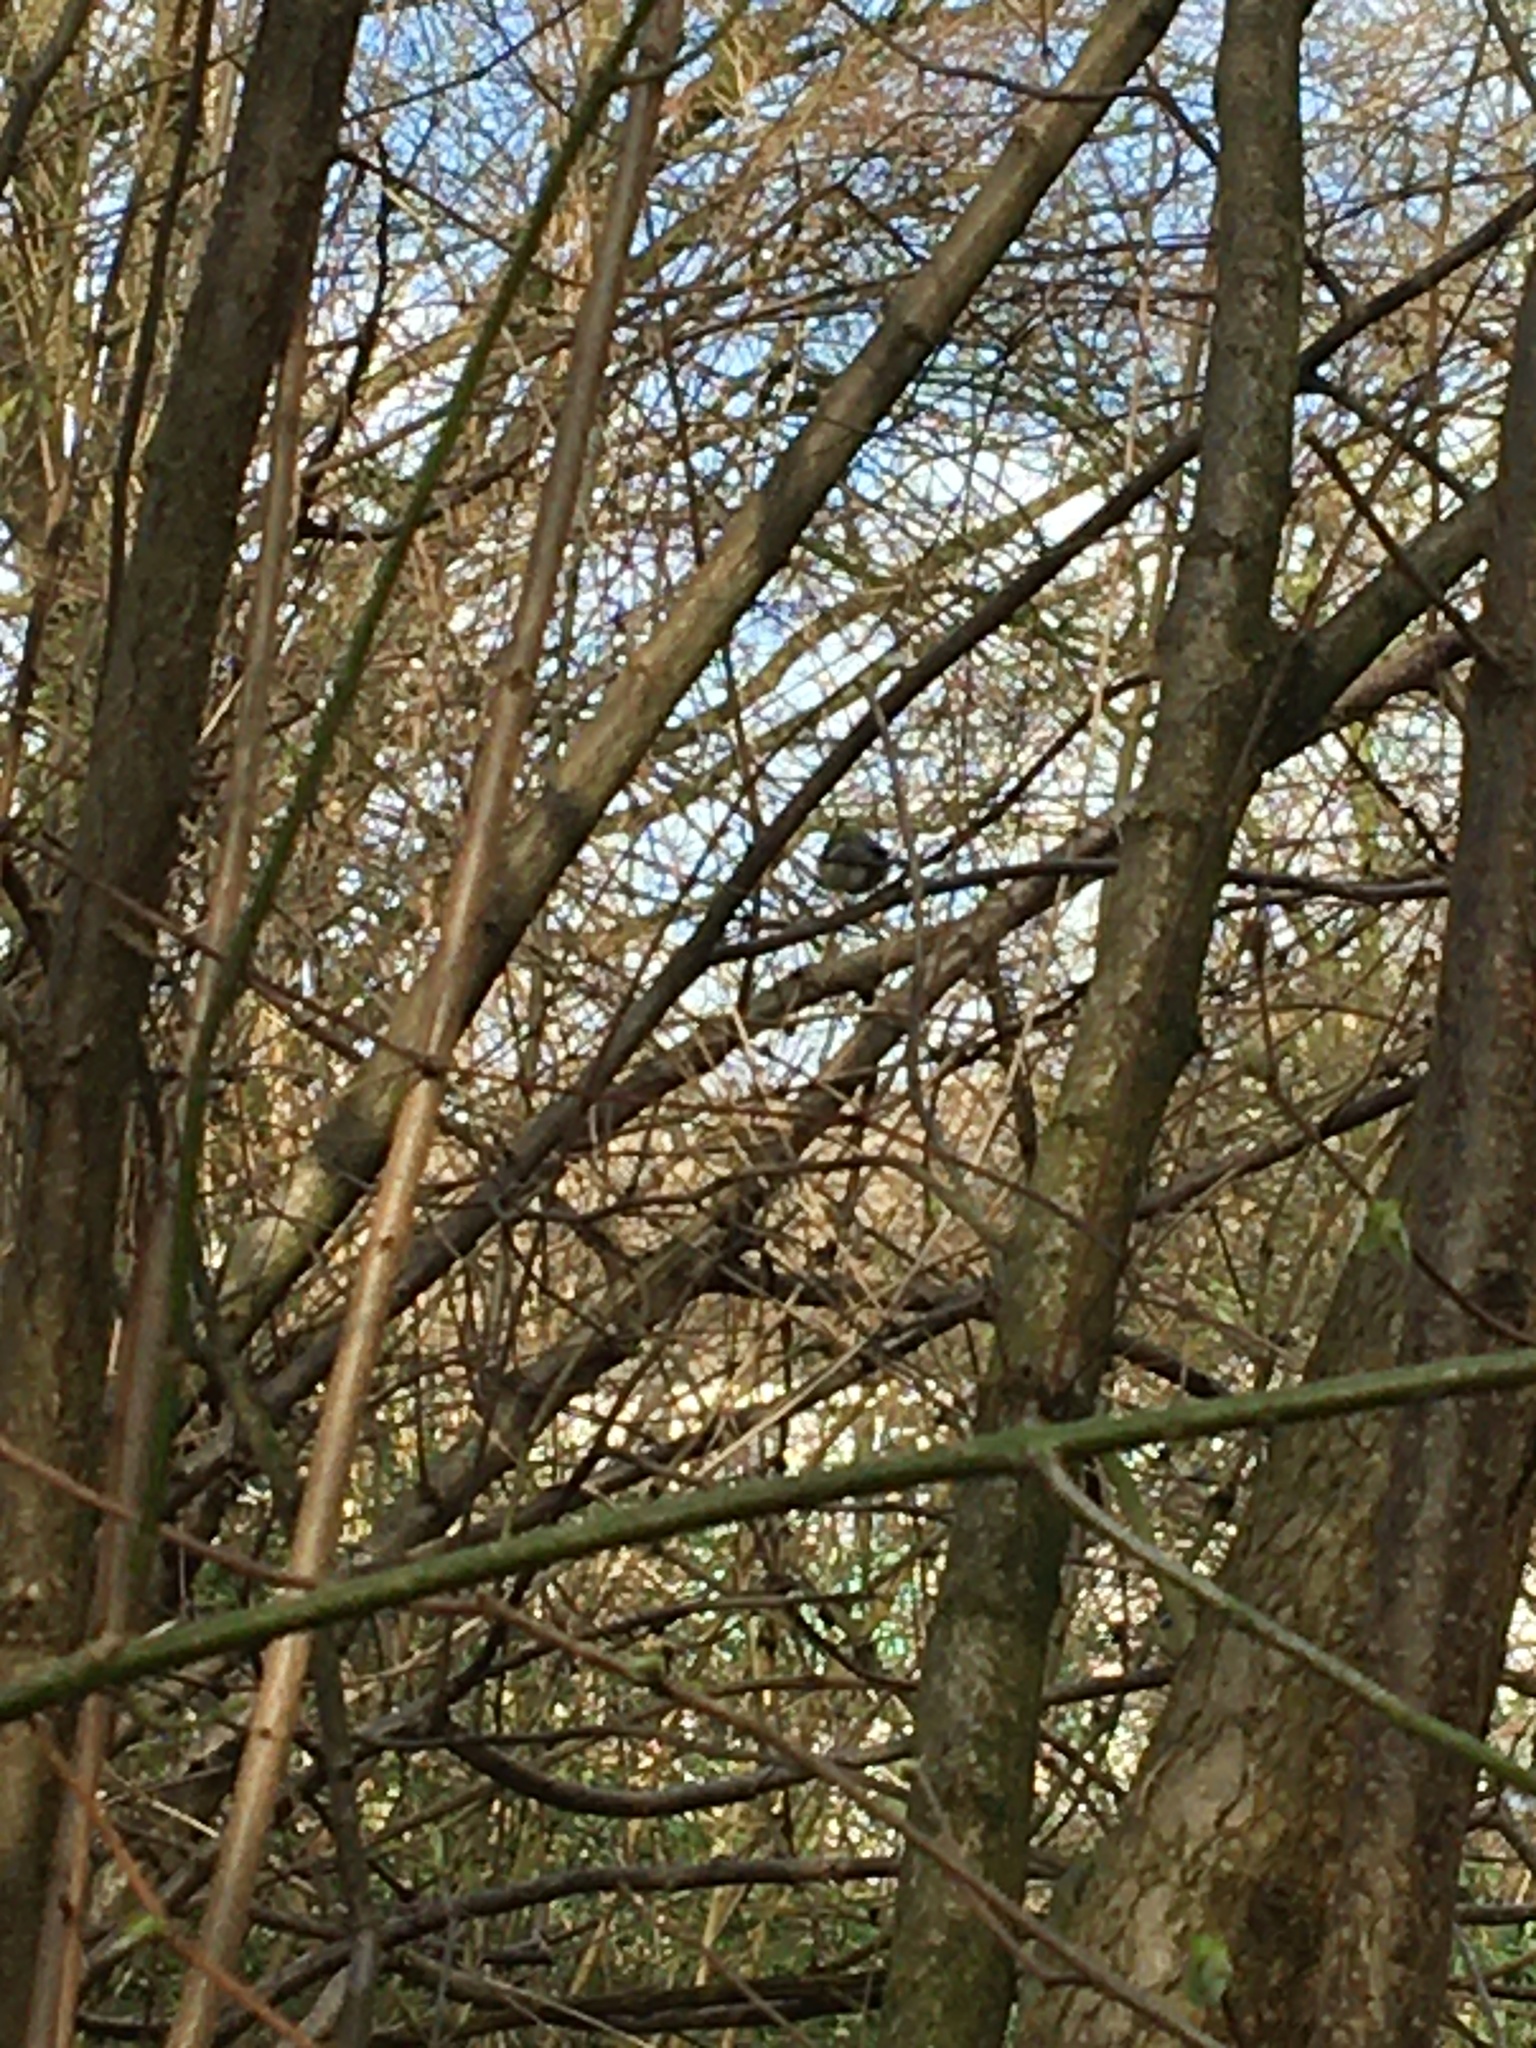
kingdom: Animalia
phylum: Chordata
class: Aves
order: Passeriformes
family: Paridae
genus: Parus
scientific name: Parus major
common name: Great tit
